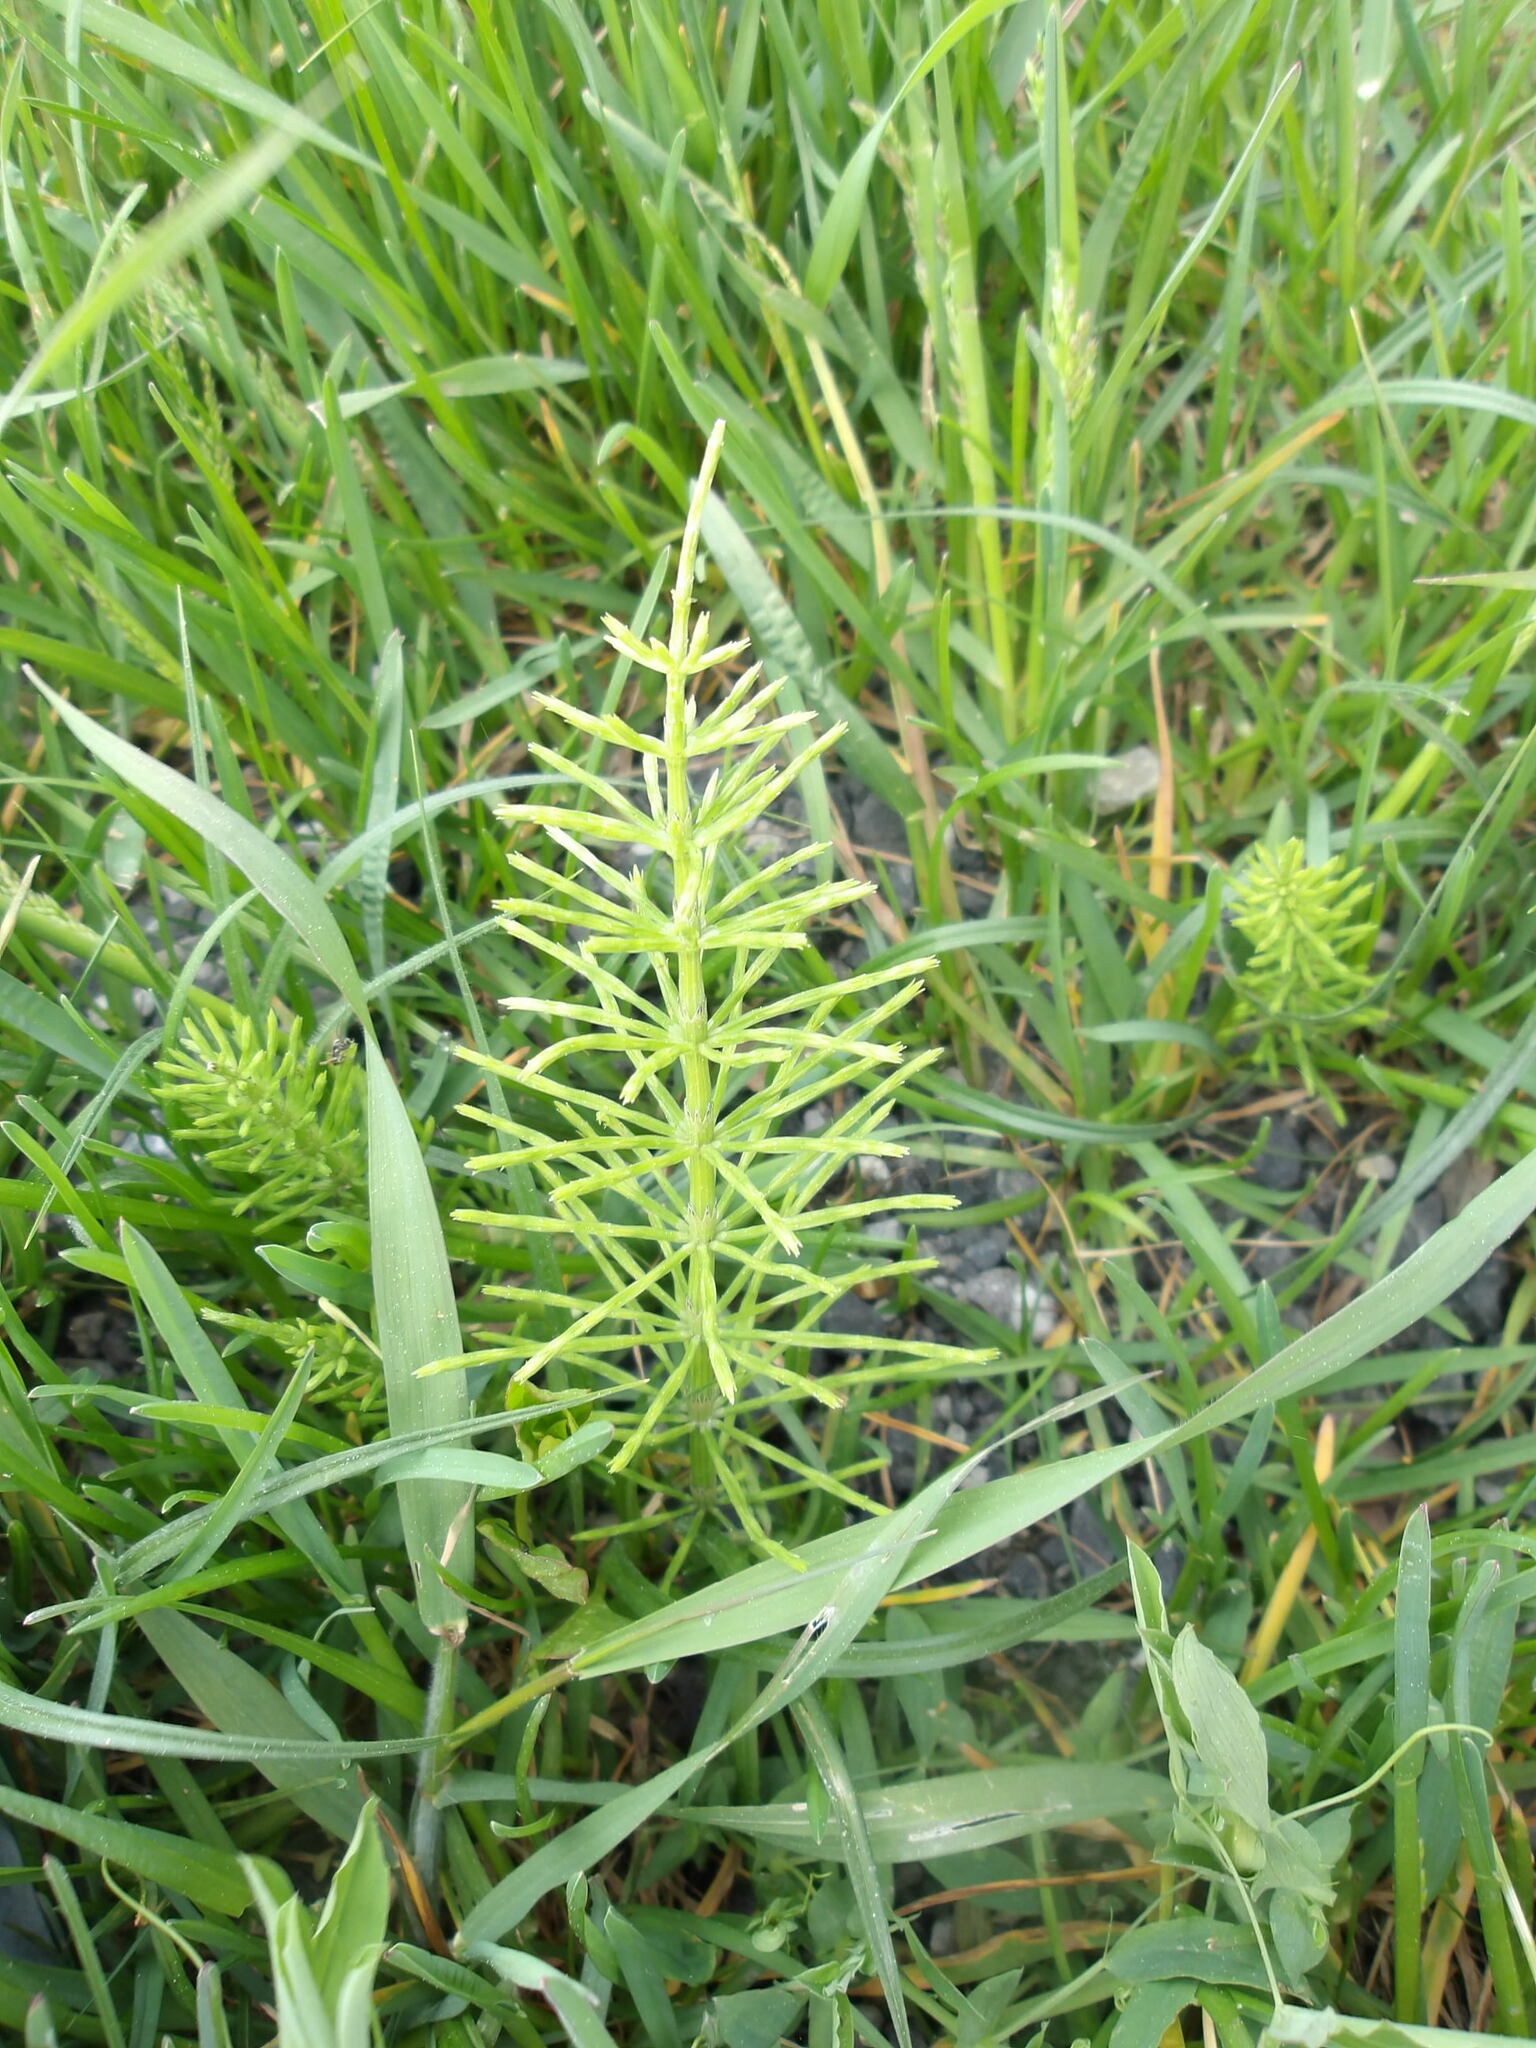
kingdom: Plantae
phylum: Tracheophyta
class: Polypodiopsida
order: Equisetales
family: Equisetaceae
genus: Equisetum
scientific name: Equisetum arvense
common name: Field horsetail
